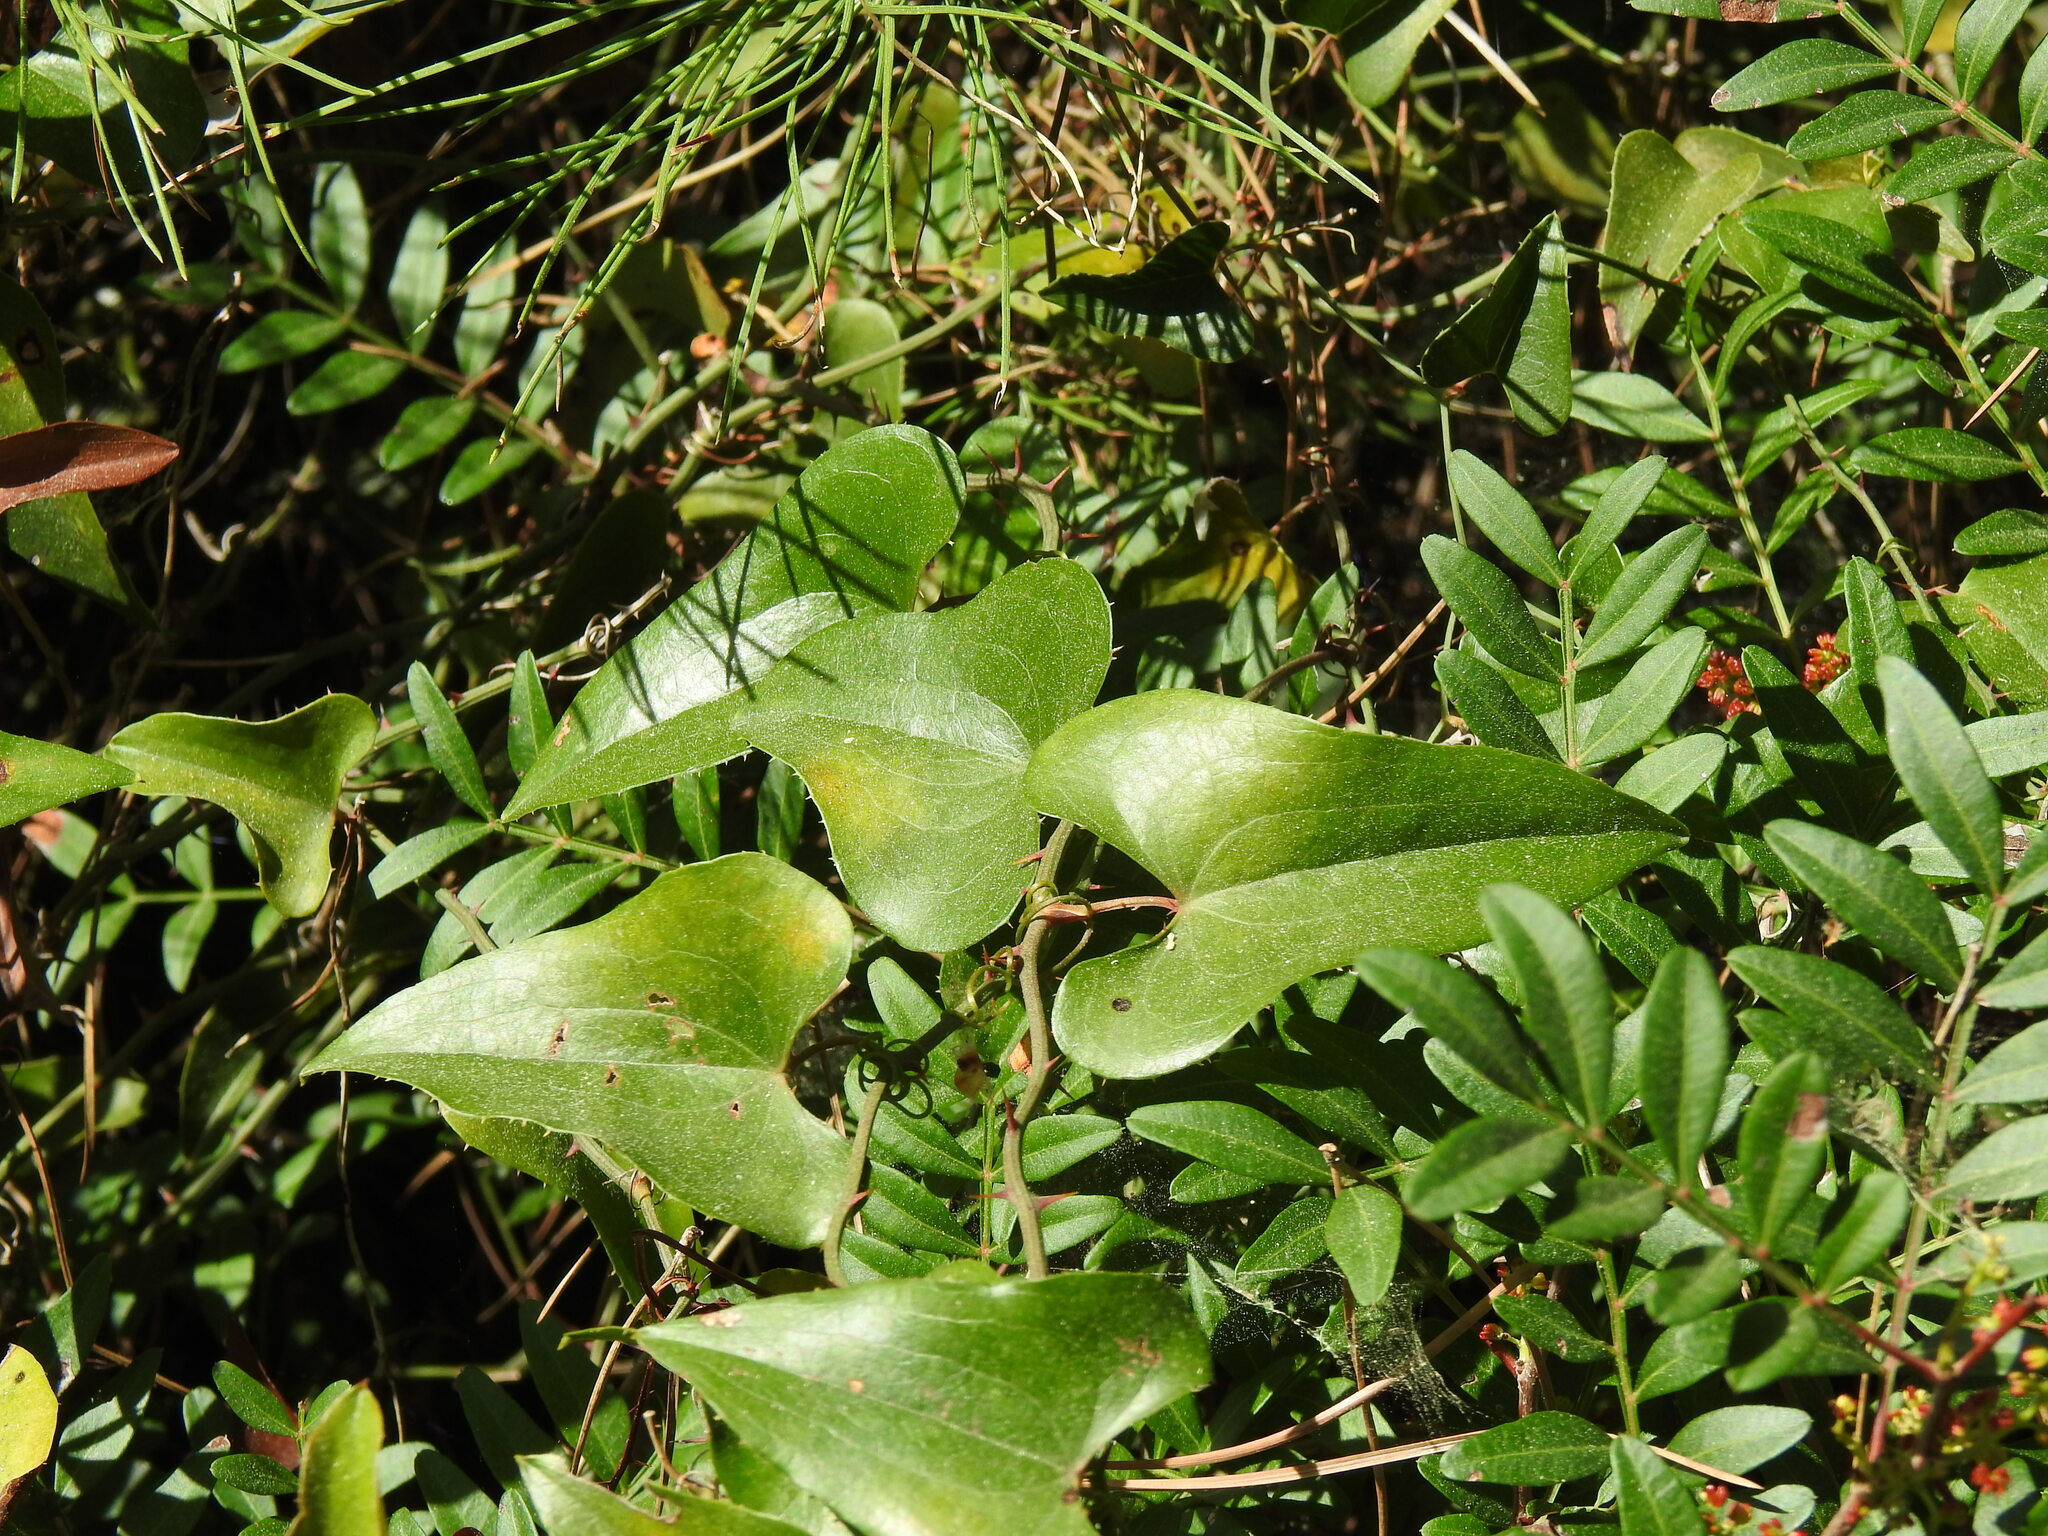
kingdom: Plantae
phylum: Tracheophyta
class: Liliopsida
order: Liliales
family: Smilacaceae
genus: Smilax
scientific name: Smilax aspera
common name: Common smilax
